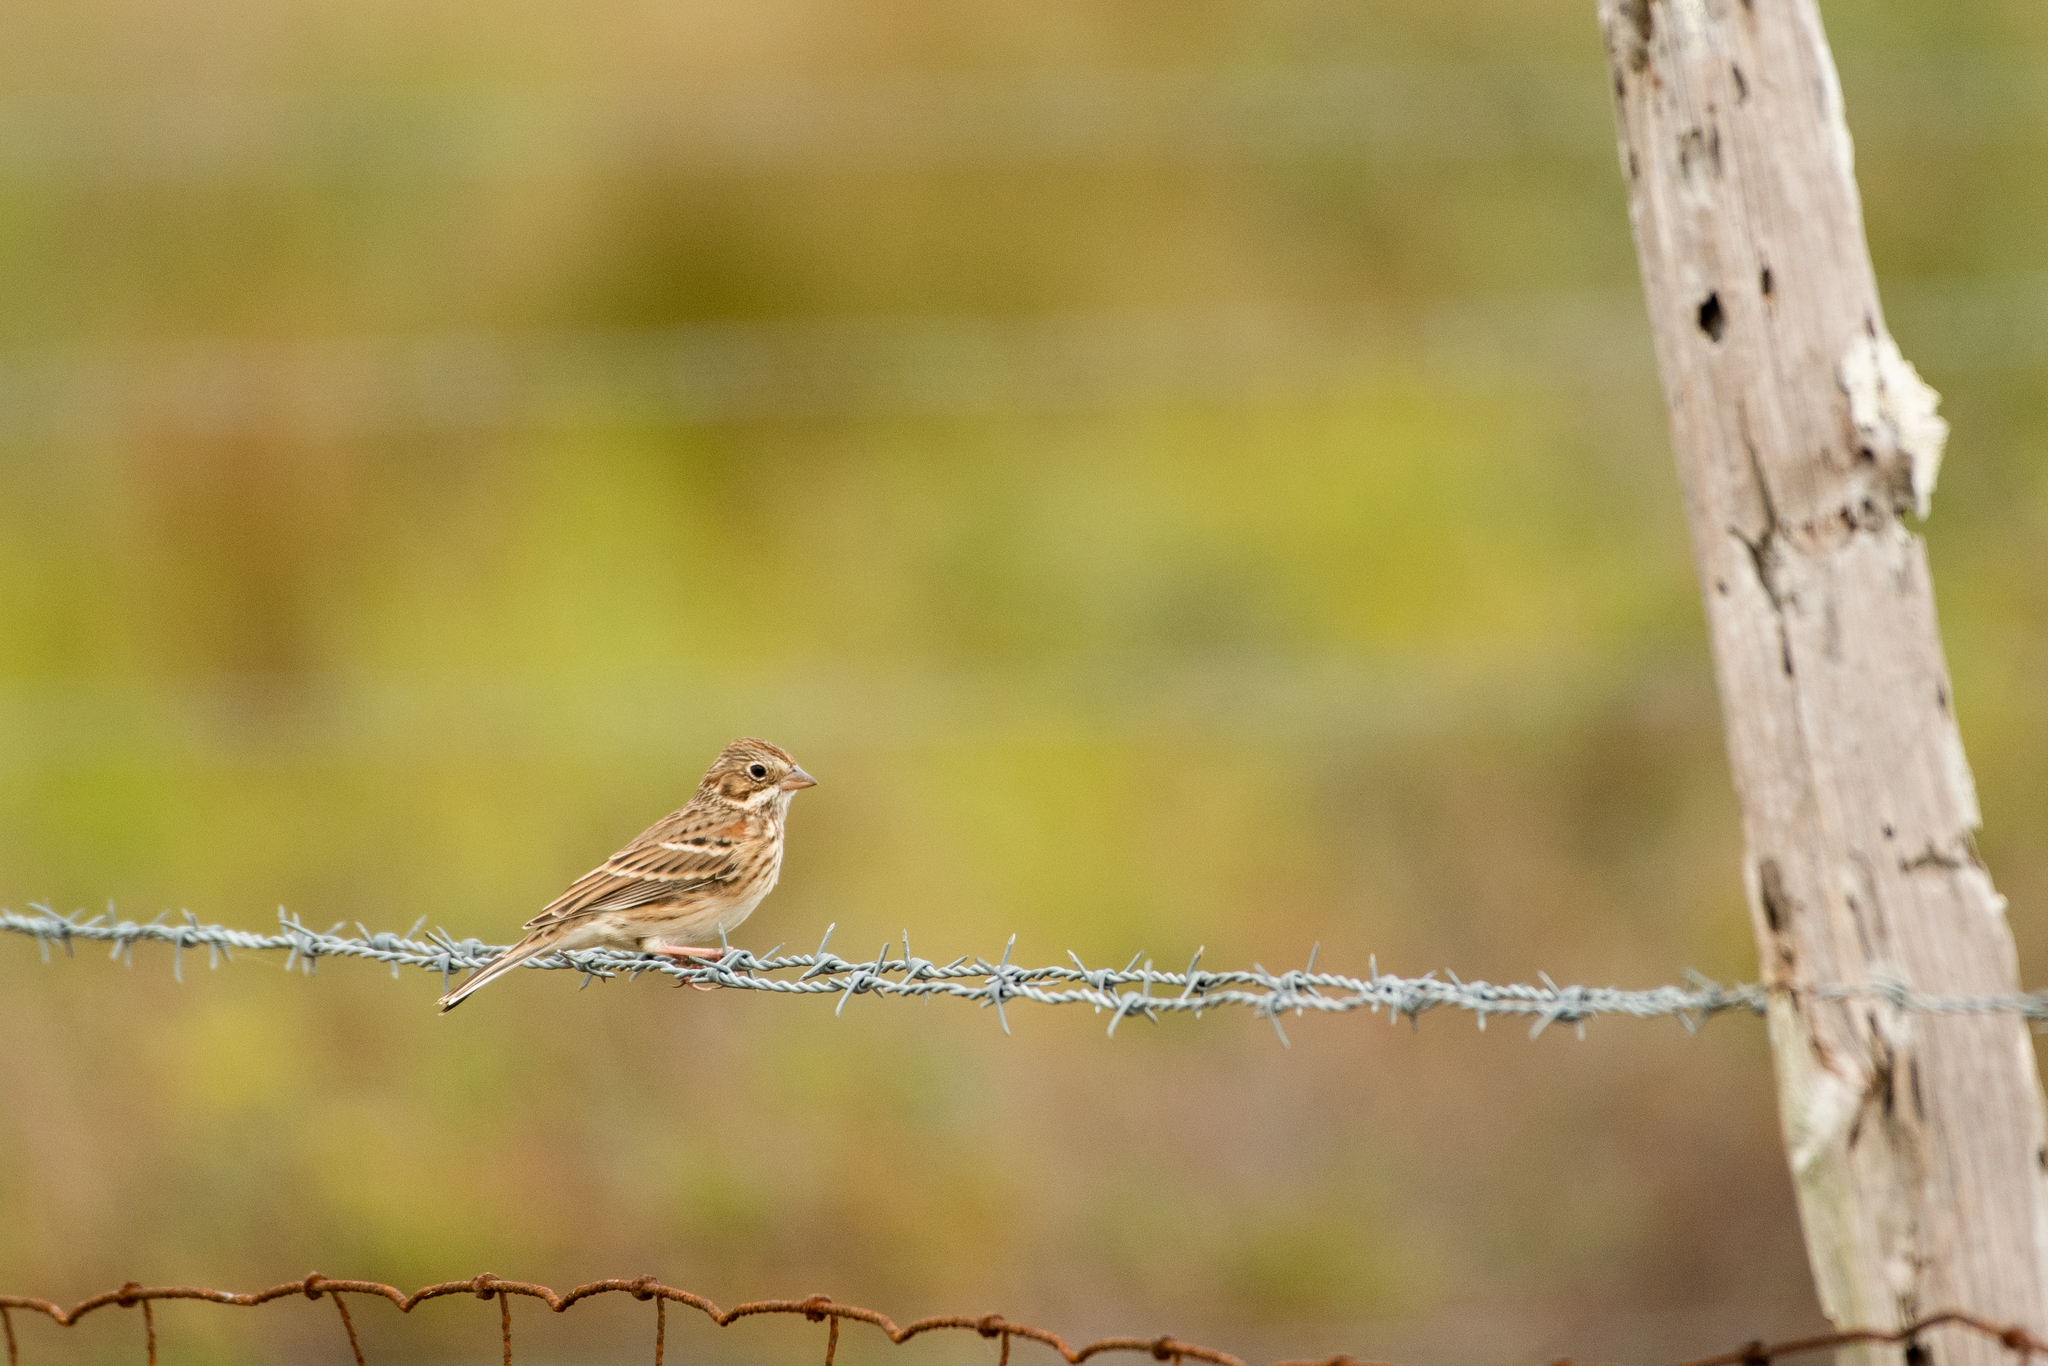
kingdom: Animalia
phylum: Chordata
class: Aves
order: Passeriformes
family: Passerellidae
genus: Pooecetes
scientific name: Pooecetes gramineus
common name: Vesper sparrow
